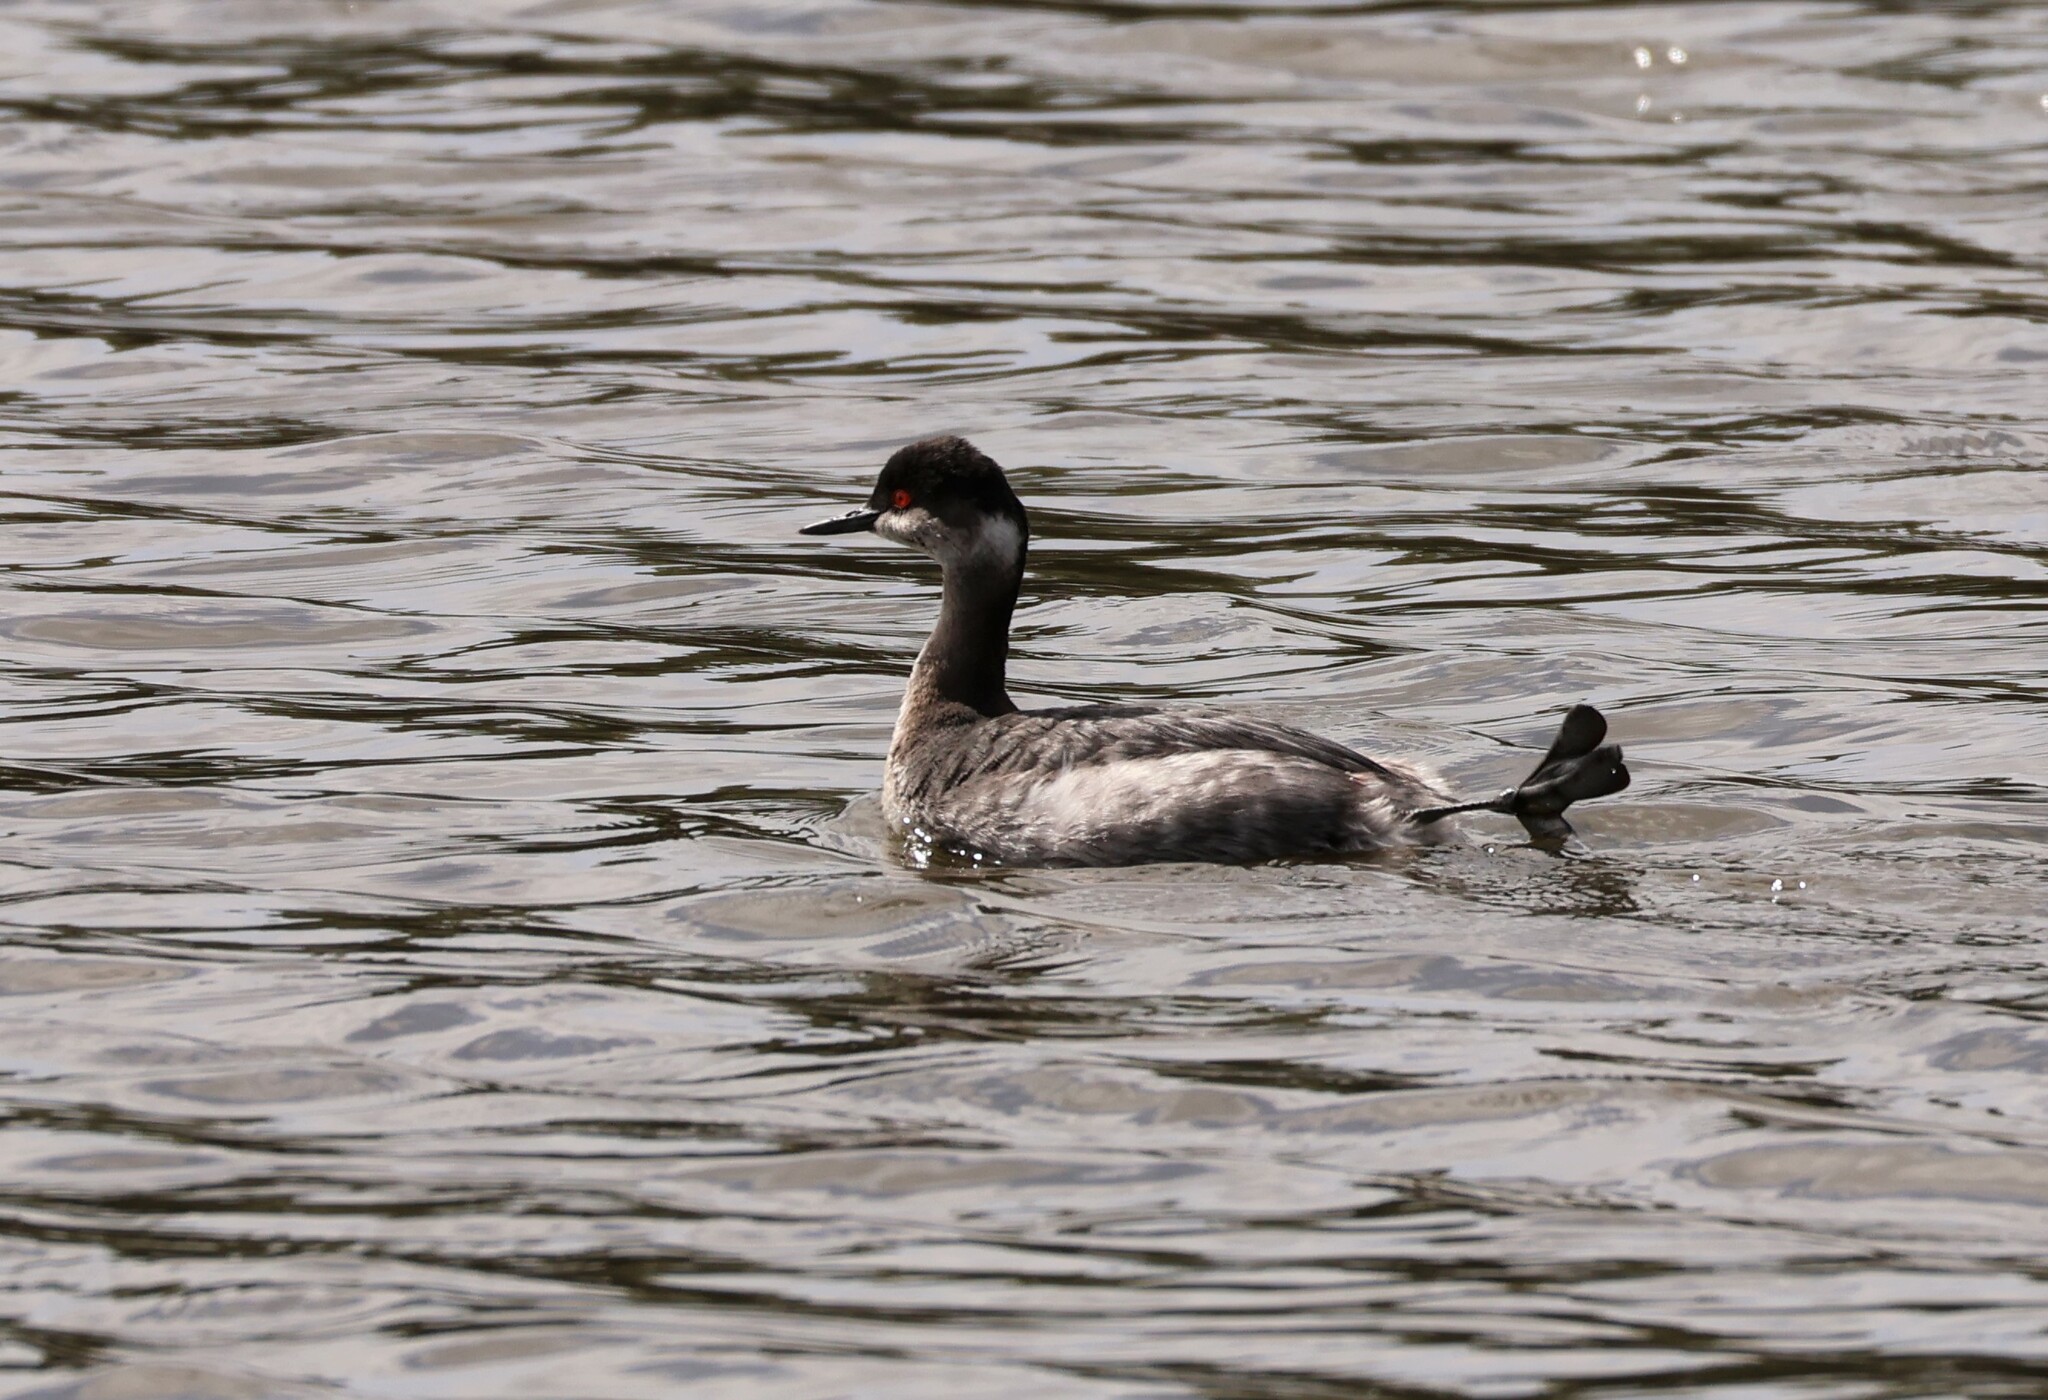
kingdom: Animalia
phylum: Chordata
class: Aves
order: Podicipediformes
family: Podicipedidae
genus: Podiceps
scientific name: Podiceps nigricollis
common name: Black-necked grebe
